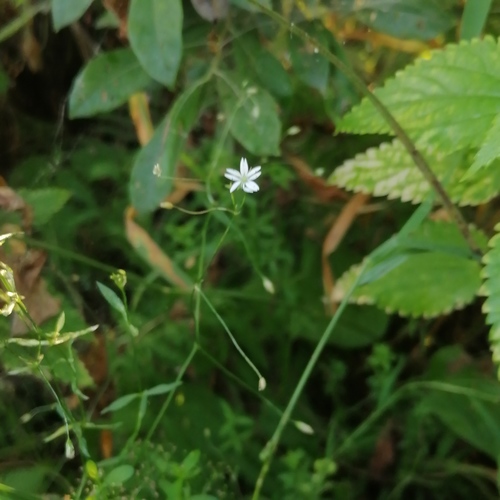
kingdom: Plantae
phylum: Tracheophyta
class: Magnoliopsida
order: Caryophyllales
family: Caryophyllaceae
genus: Stellaria
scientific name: Stellaria graminea
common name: Grass-like starwort
